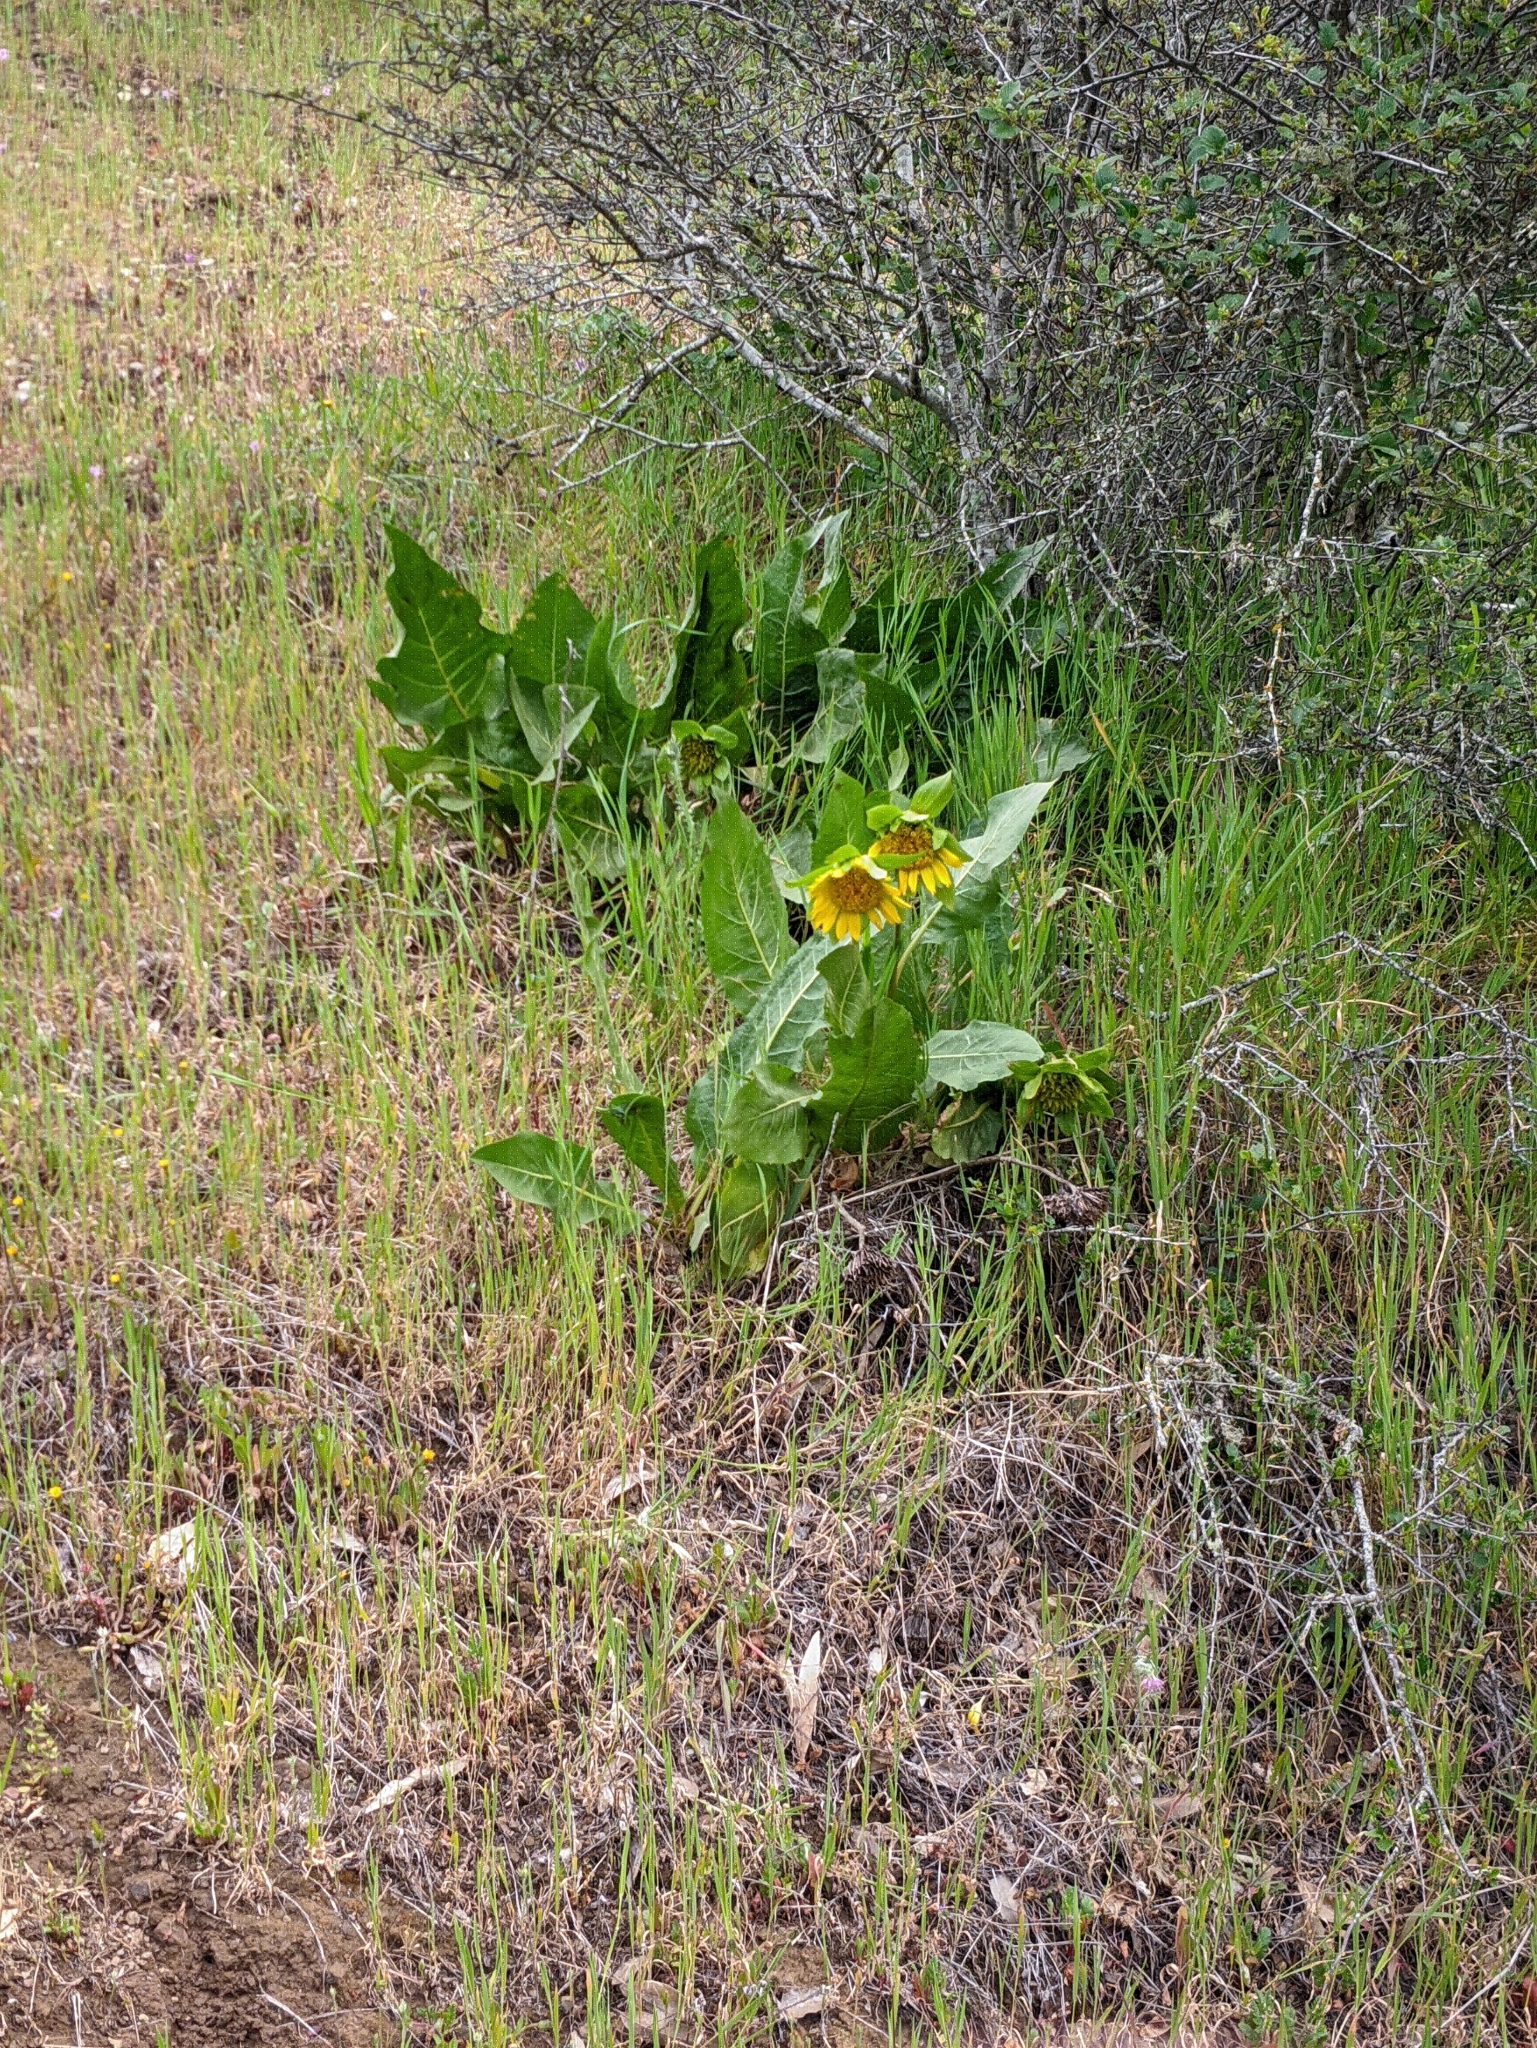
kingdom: Plantae
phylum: Tracheophyta
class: Magnoliopsida
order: Asterales
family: Asteraceae
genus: Wyethia
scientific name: Wyethia glabra
